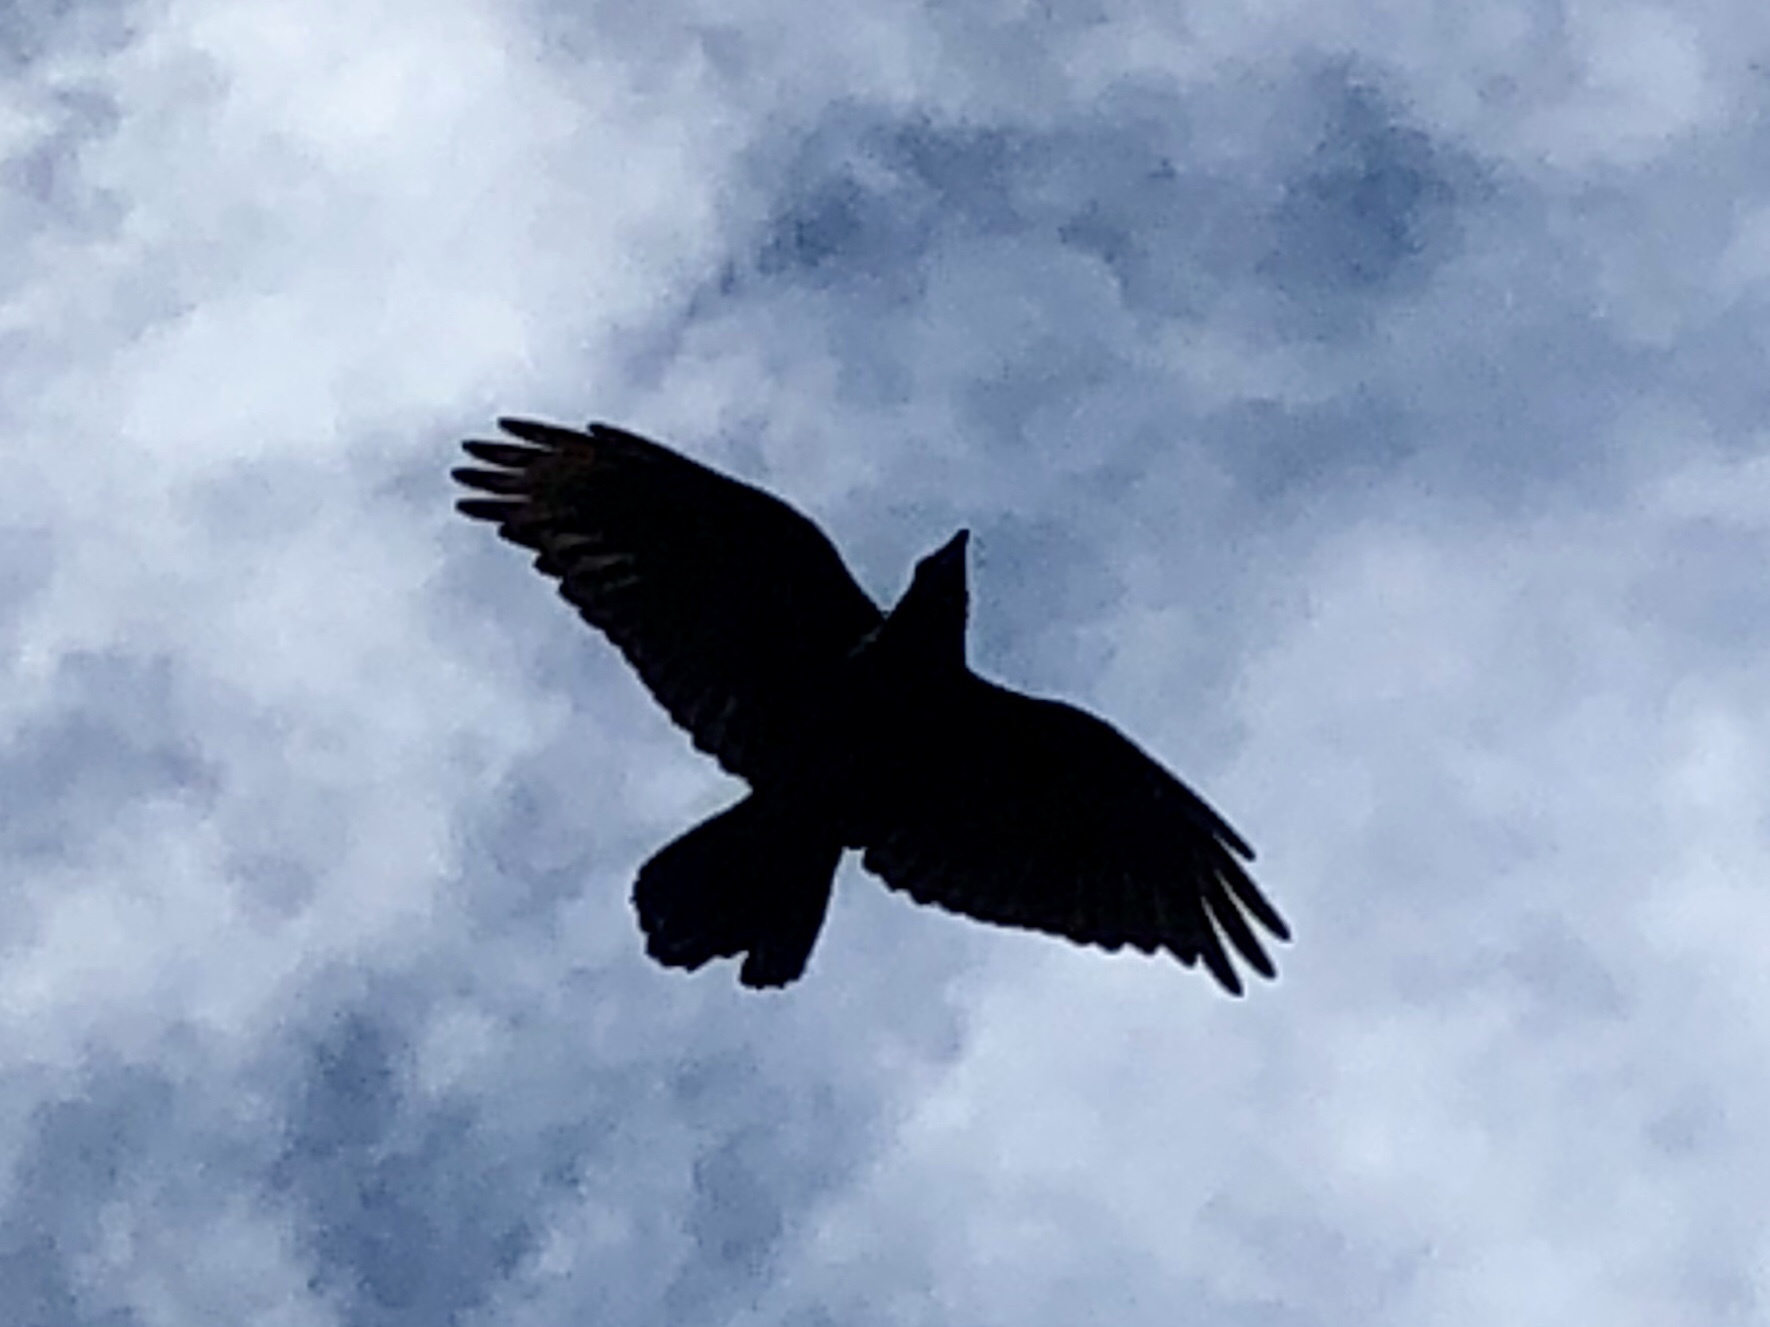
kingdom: Animalia
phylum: Chordata
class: Aves
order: Passeriformes
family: Corvidae
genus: Corvus
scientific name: Corvus corax
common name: Common raven
